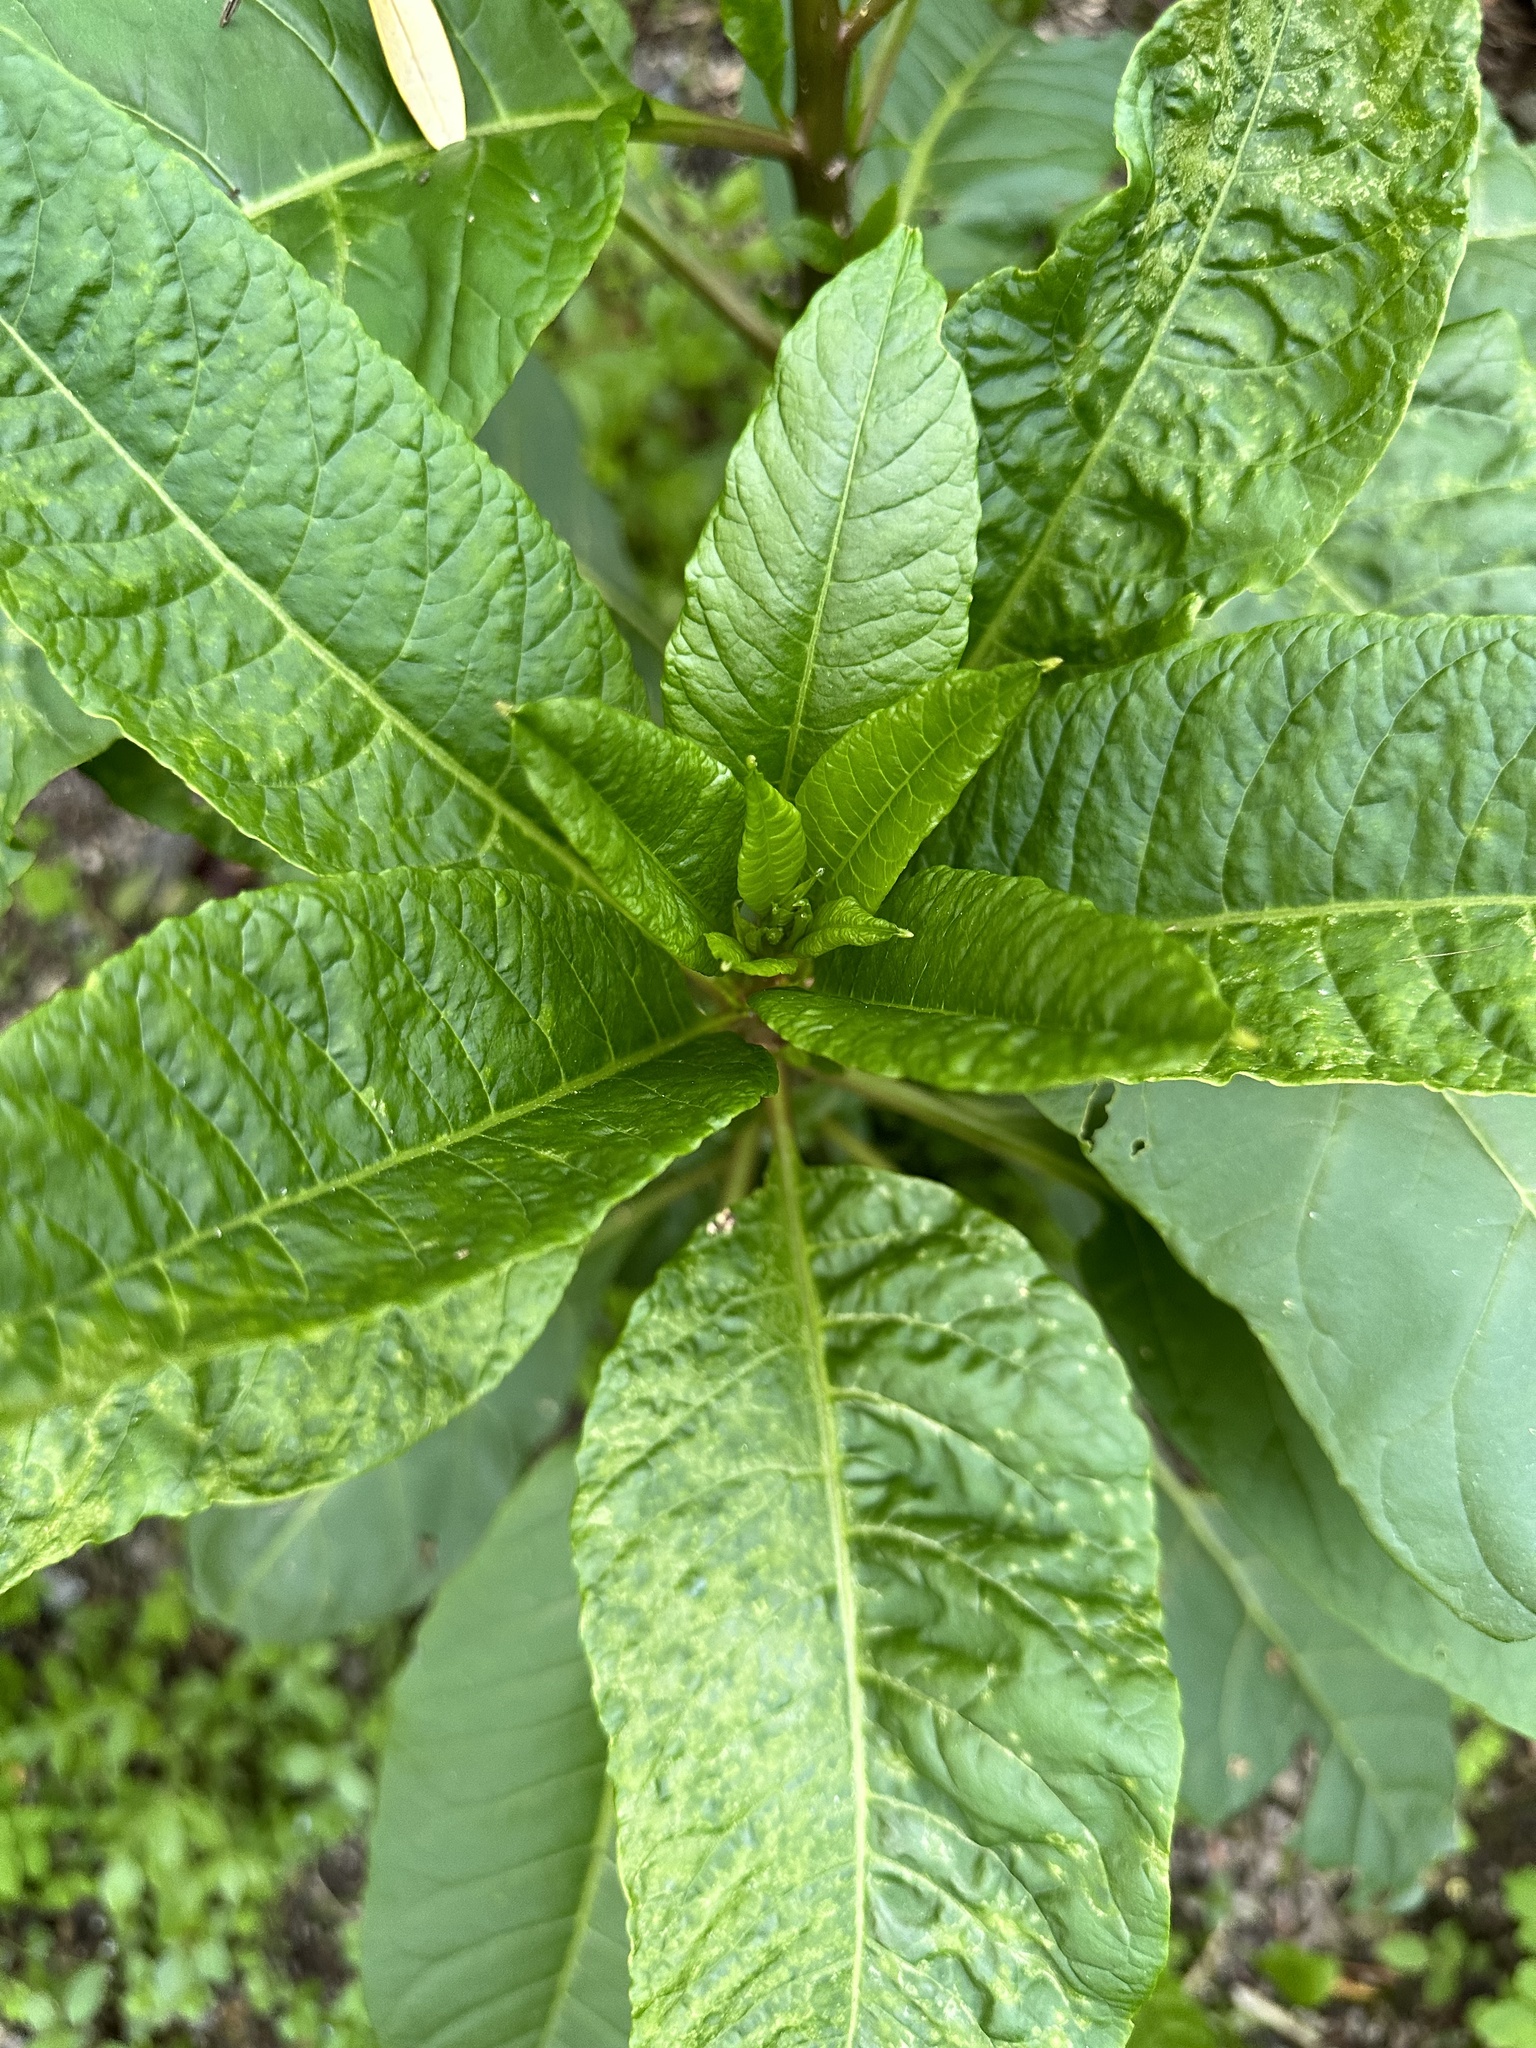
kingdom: Plantae
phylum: Tracheophyta
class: Magnoliopsida
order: Caryophyllales
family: Phytolaccaceae
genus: Phytolacca
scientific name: Phytolacca americana
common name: American pokeweed
